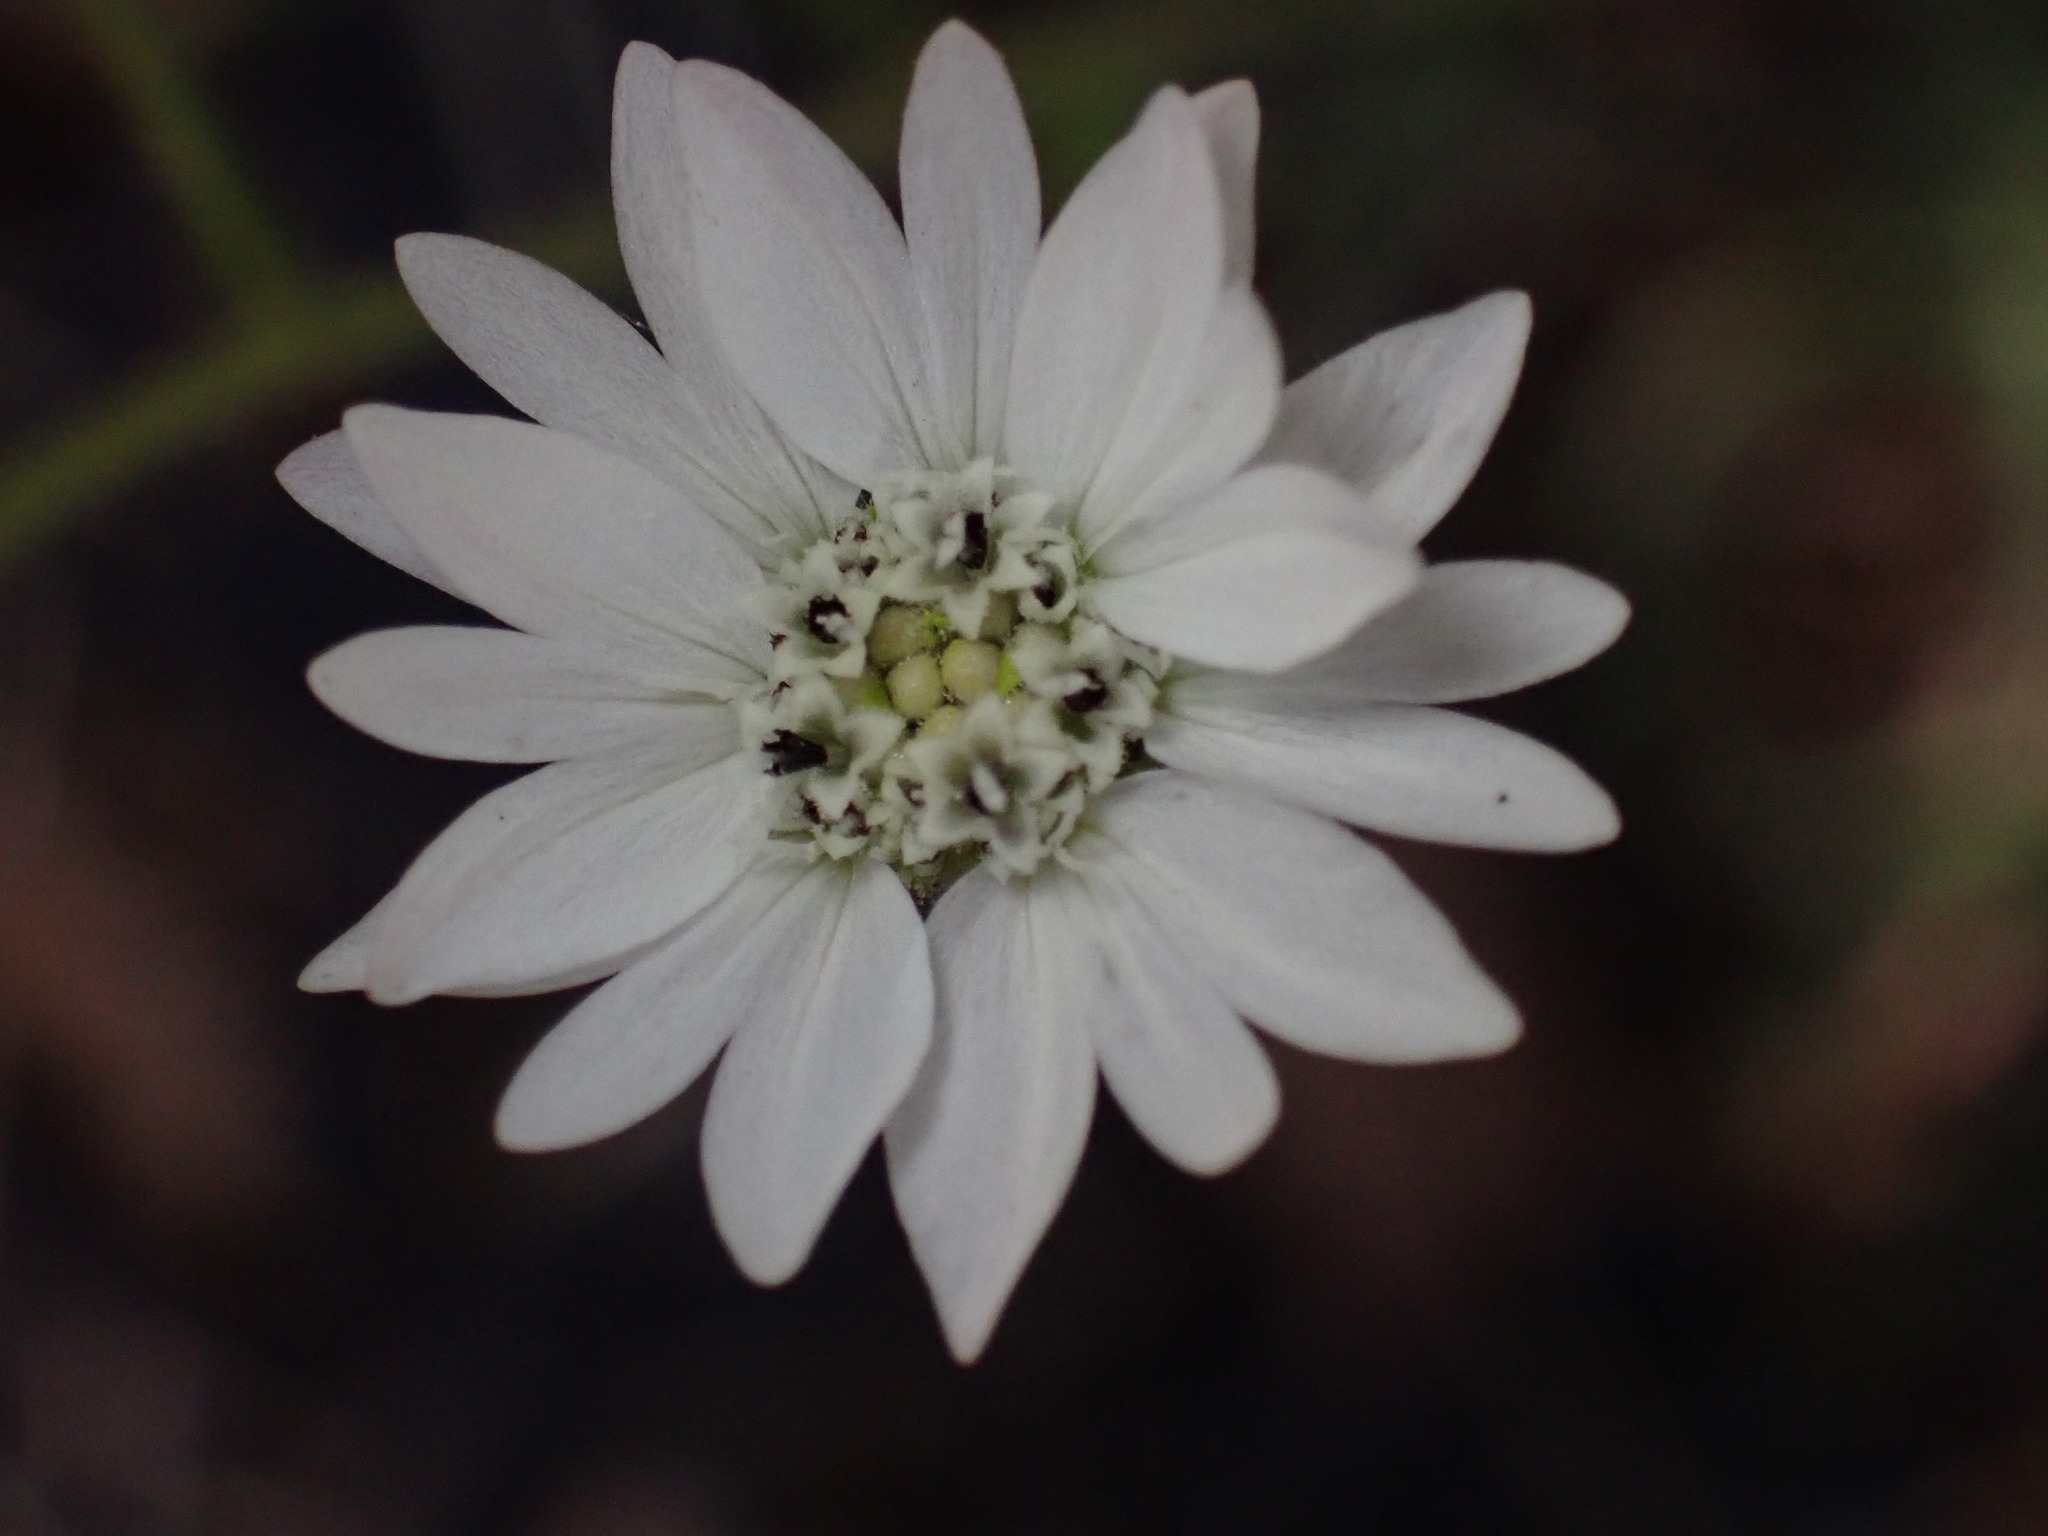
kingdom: Plantae
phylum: Tracheophyta
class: Magnoliopsida
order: Asterales
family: Asteraceae
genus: Hemizonia
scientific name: Hemizonia congesta
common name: Hayfield tarweed
